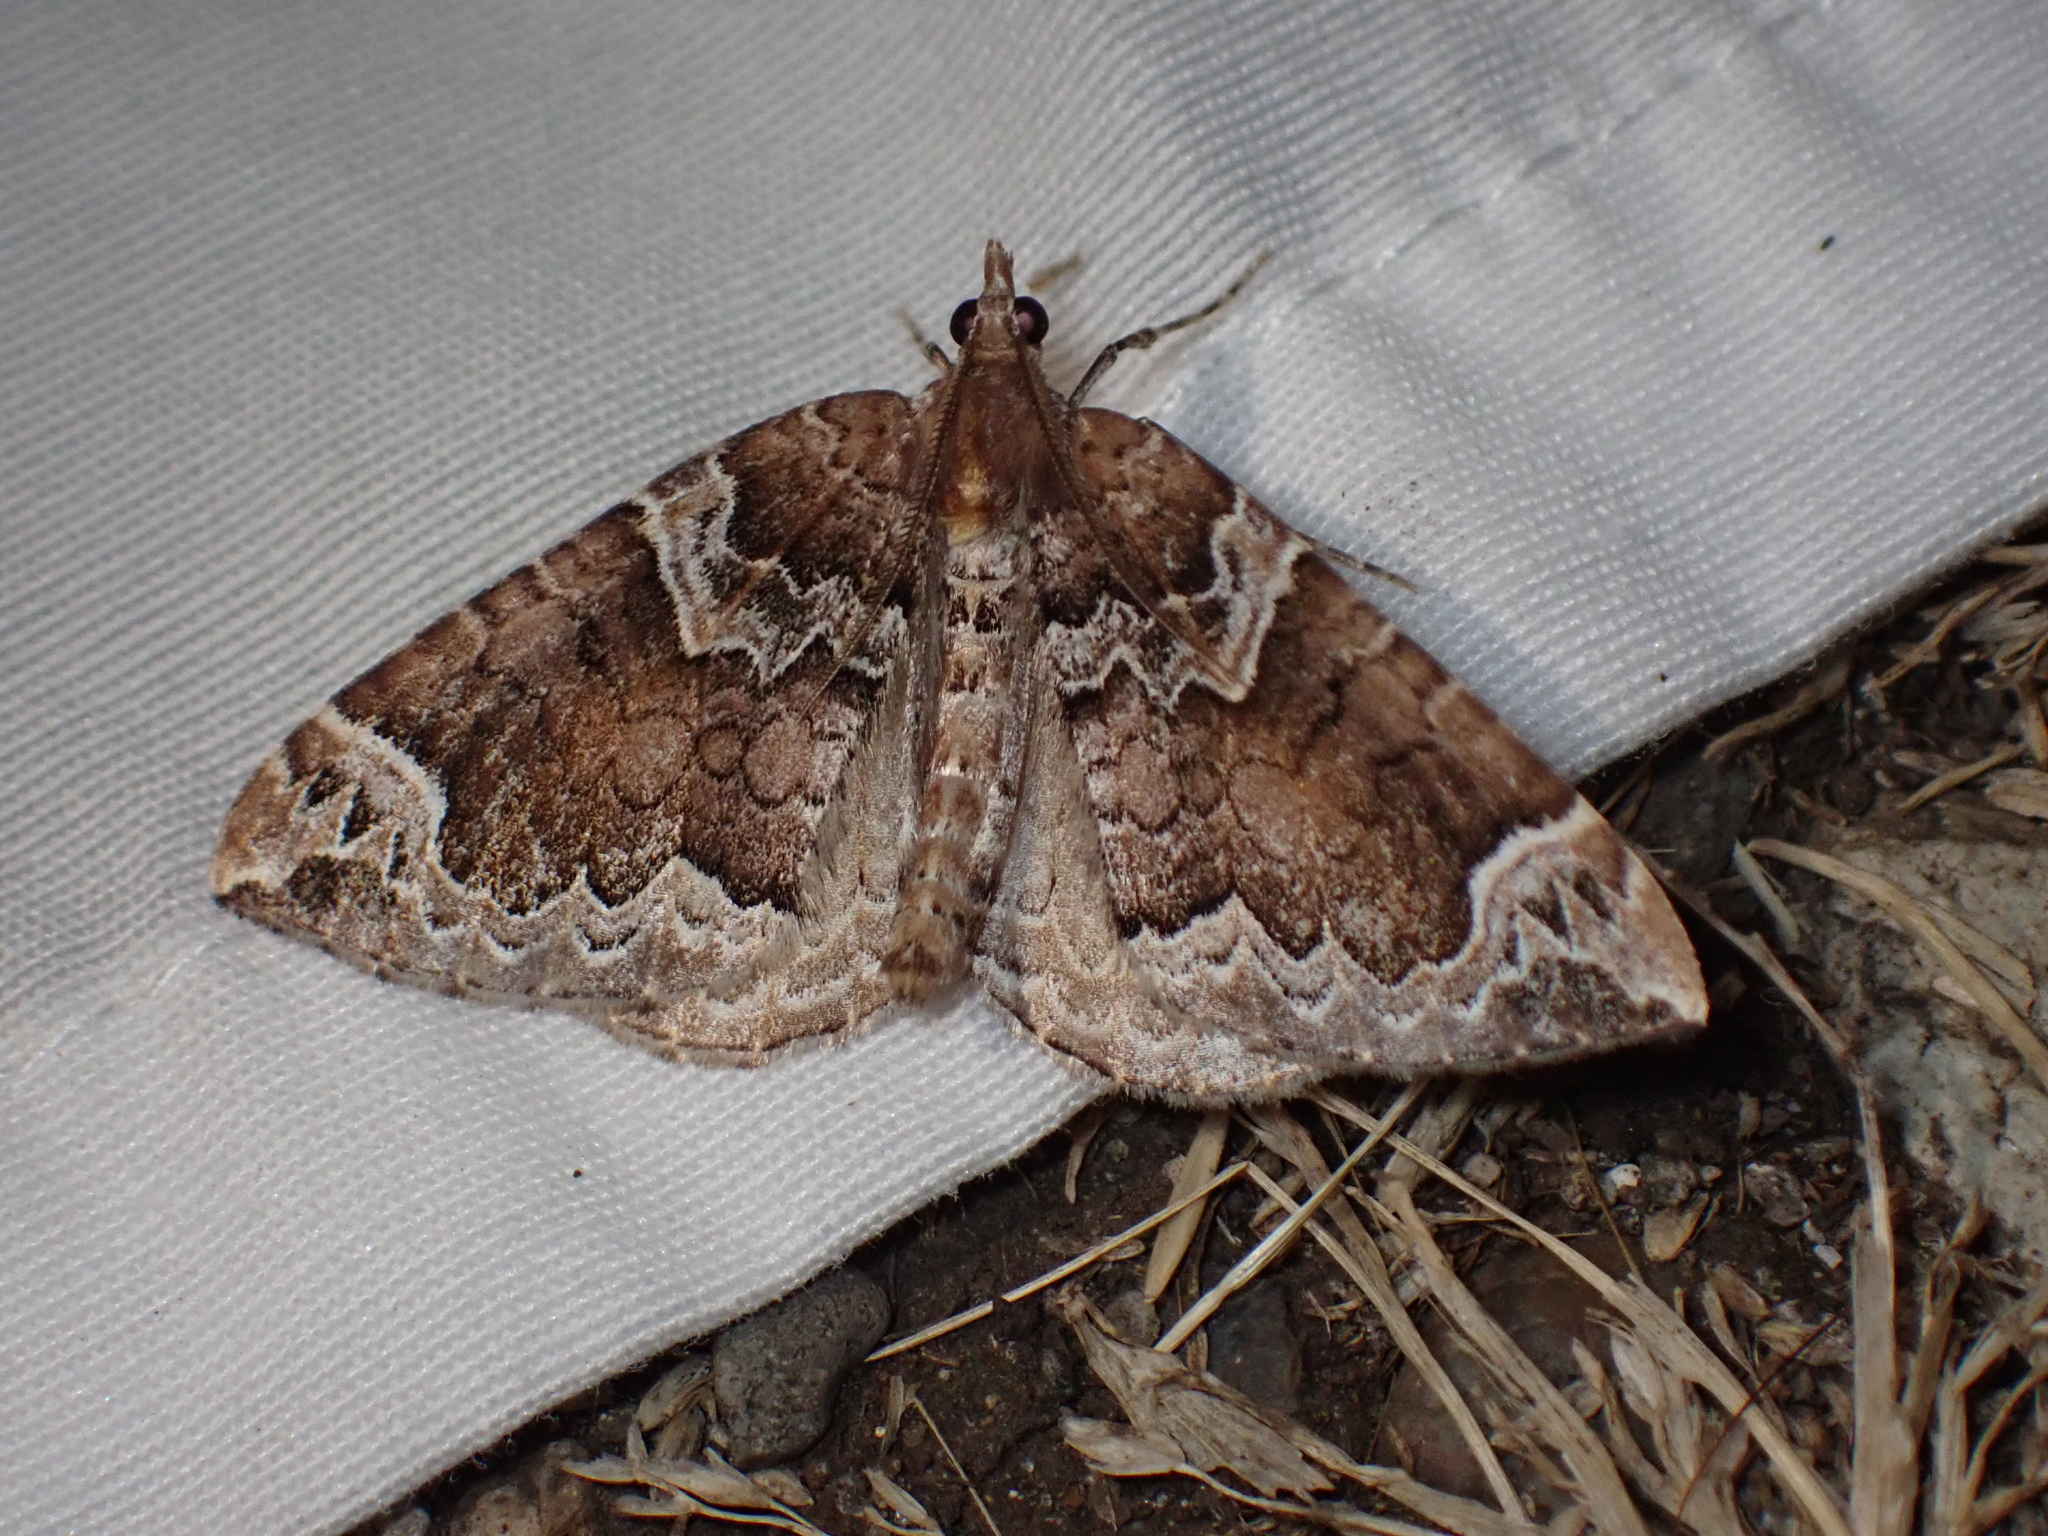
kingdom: Animalia
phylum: Arthropoda
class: Insecta
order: Lepidoptera
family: Geometridae
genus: Eulithis
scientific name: Eulithis xylina
